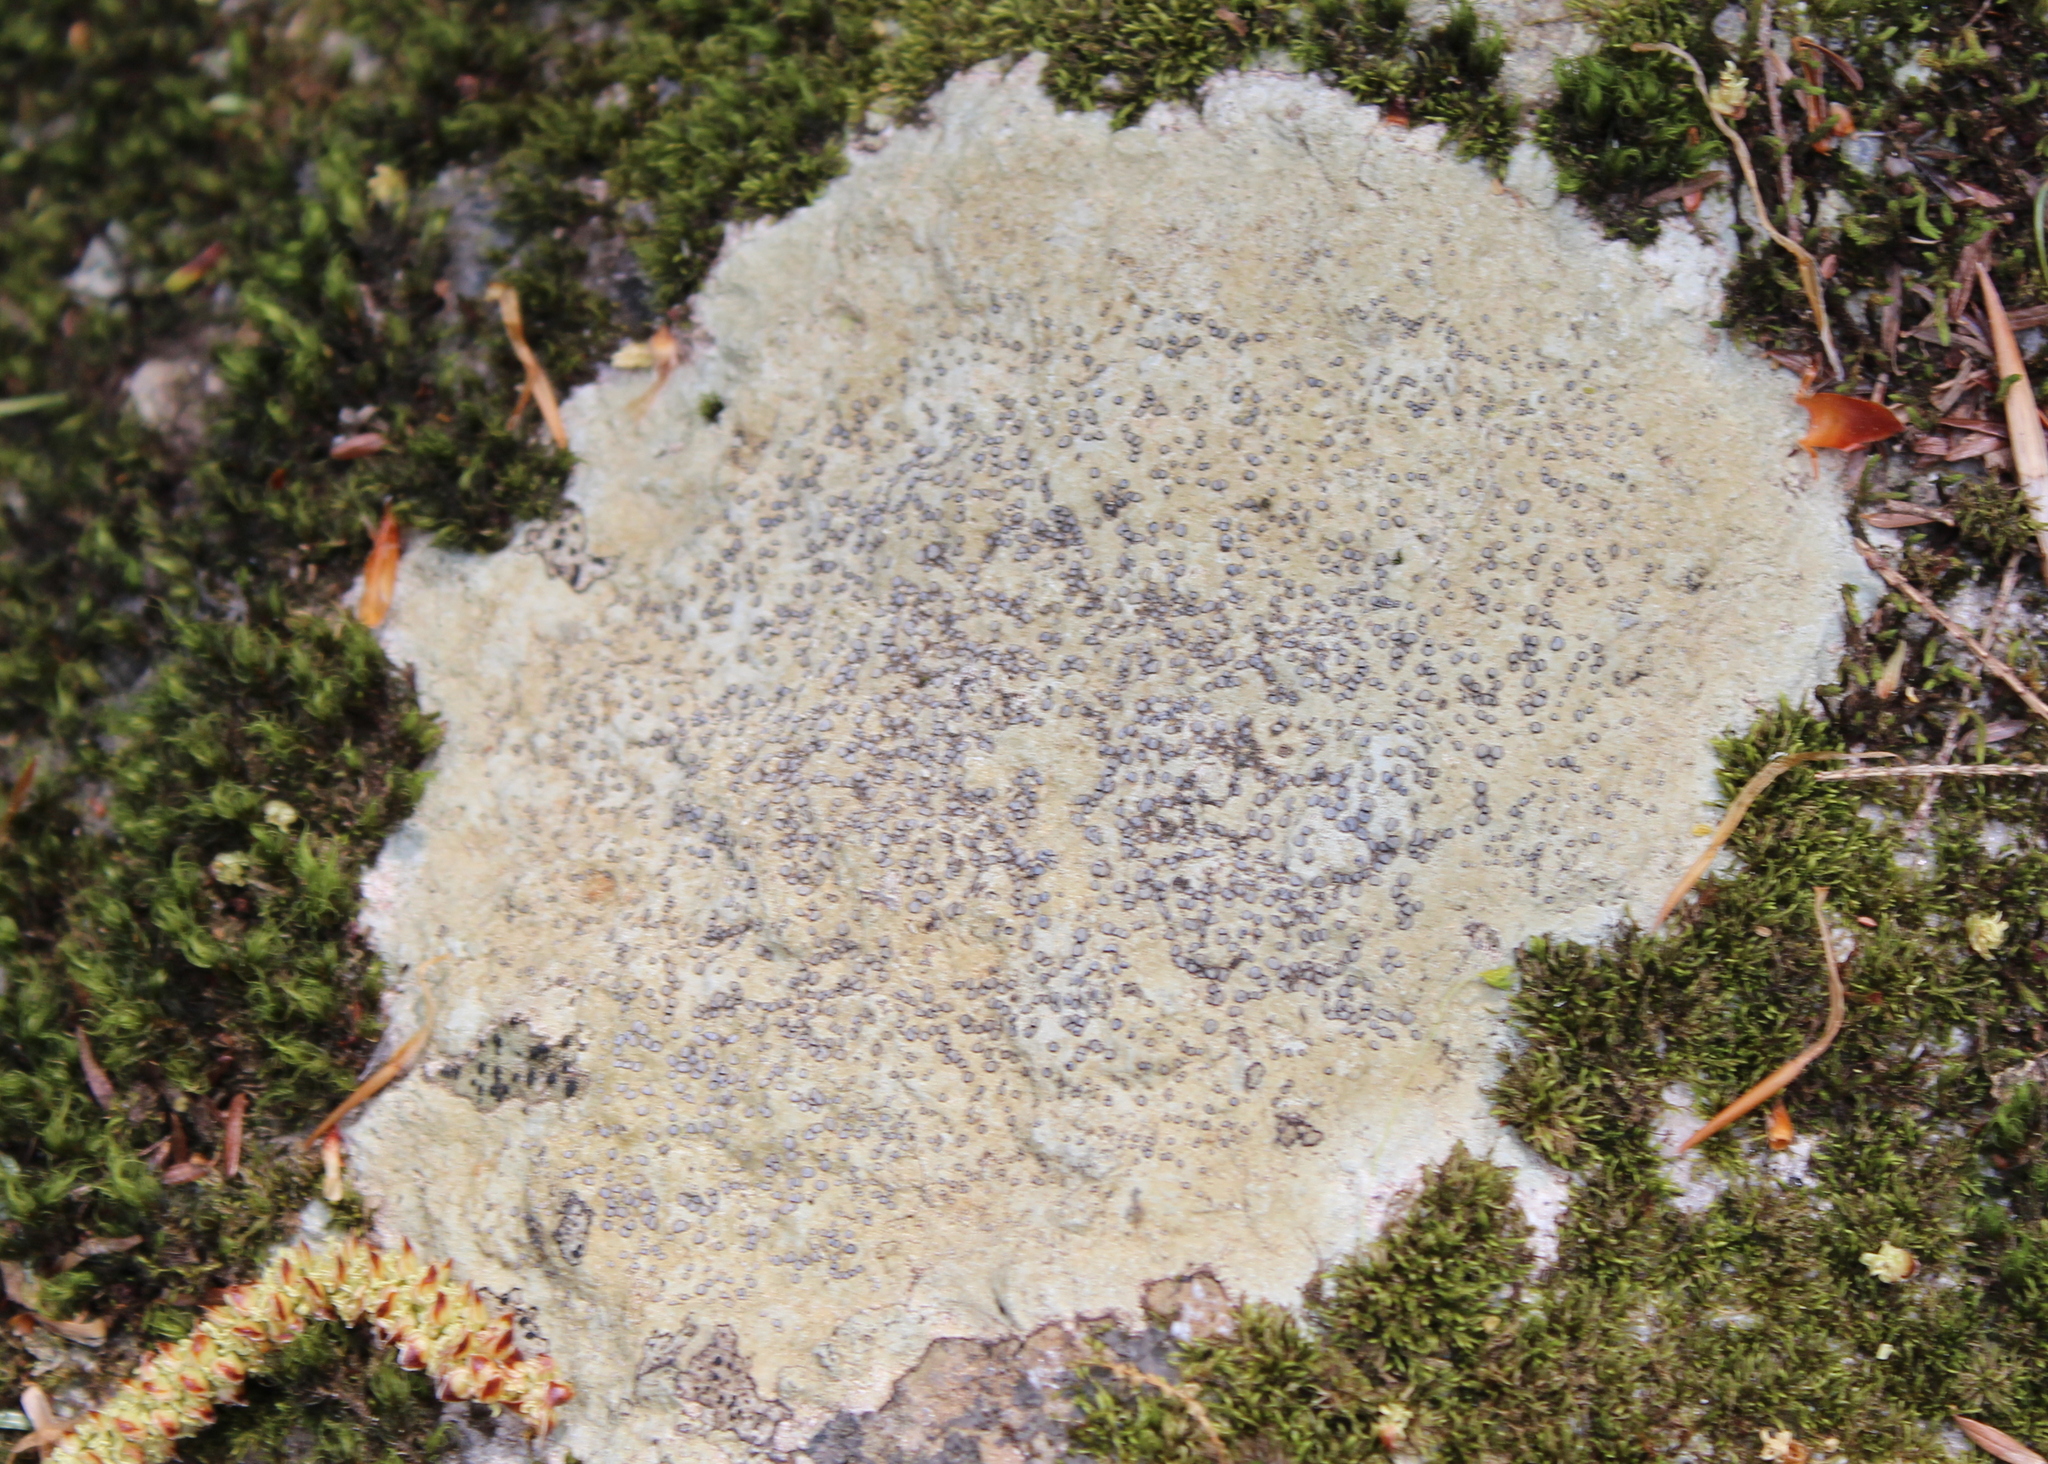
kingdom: Fungi
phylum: Ascomycota
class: Lecanoromycetes
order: Lecideales
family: Lecideaceae
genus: Porpidia
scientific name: Porpidia albocaerulescens
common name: Smokey-eyed boulder lichen
